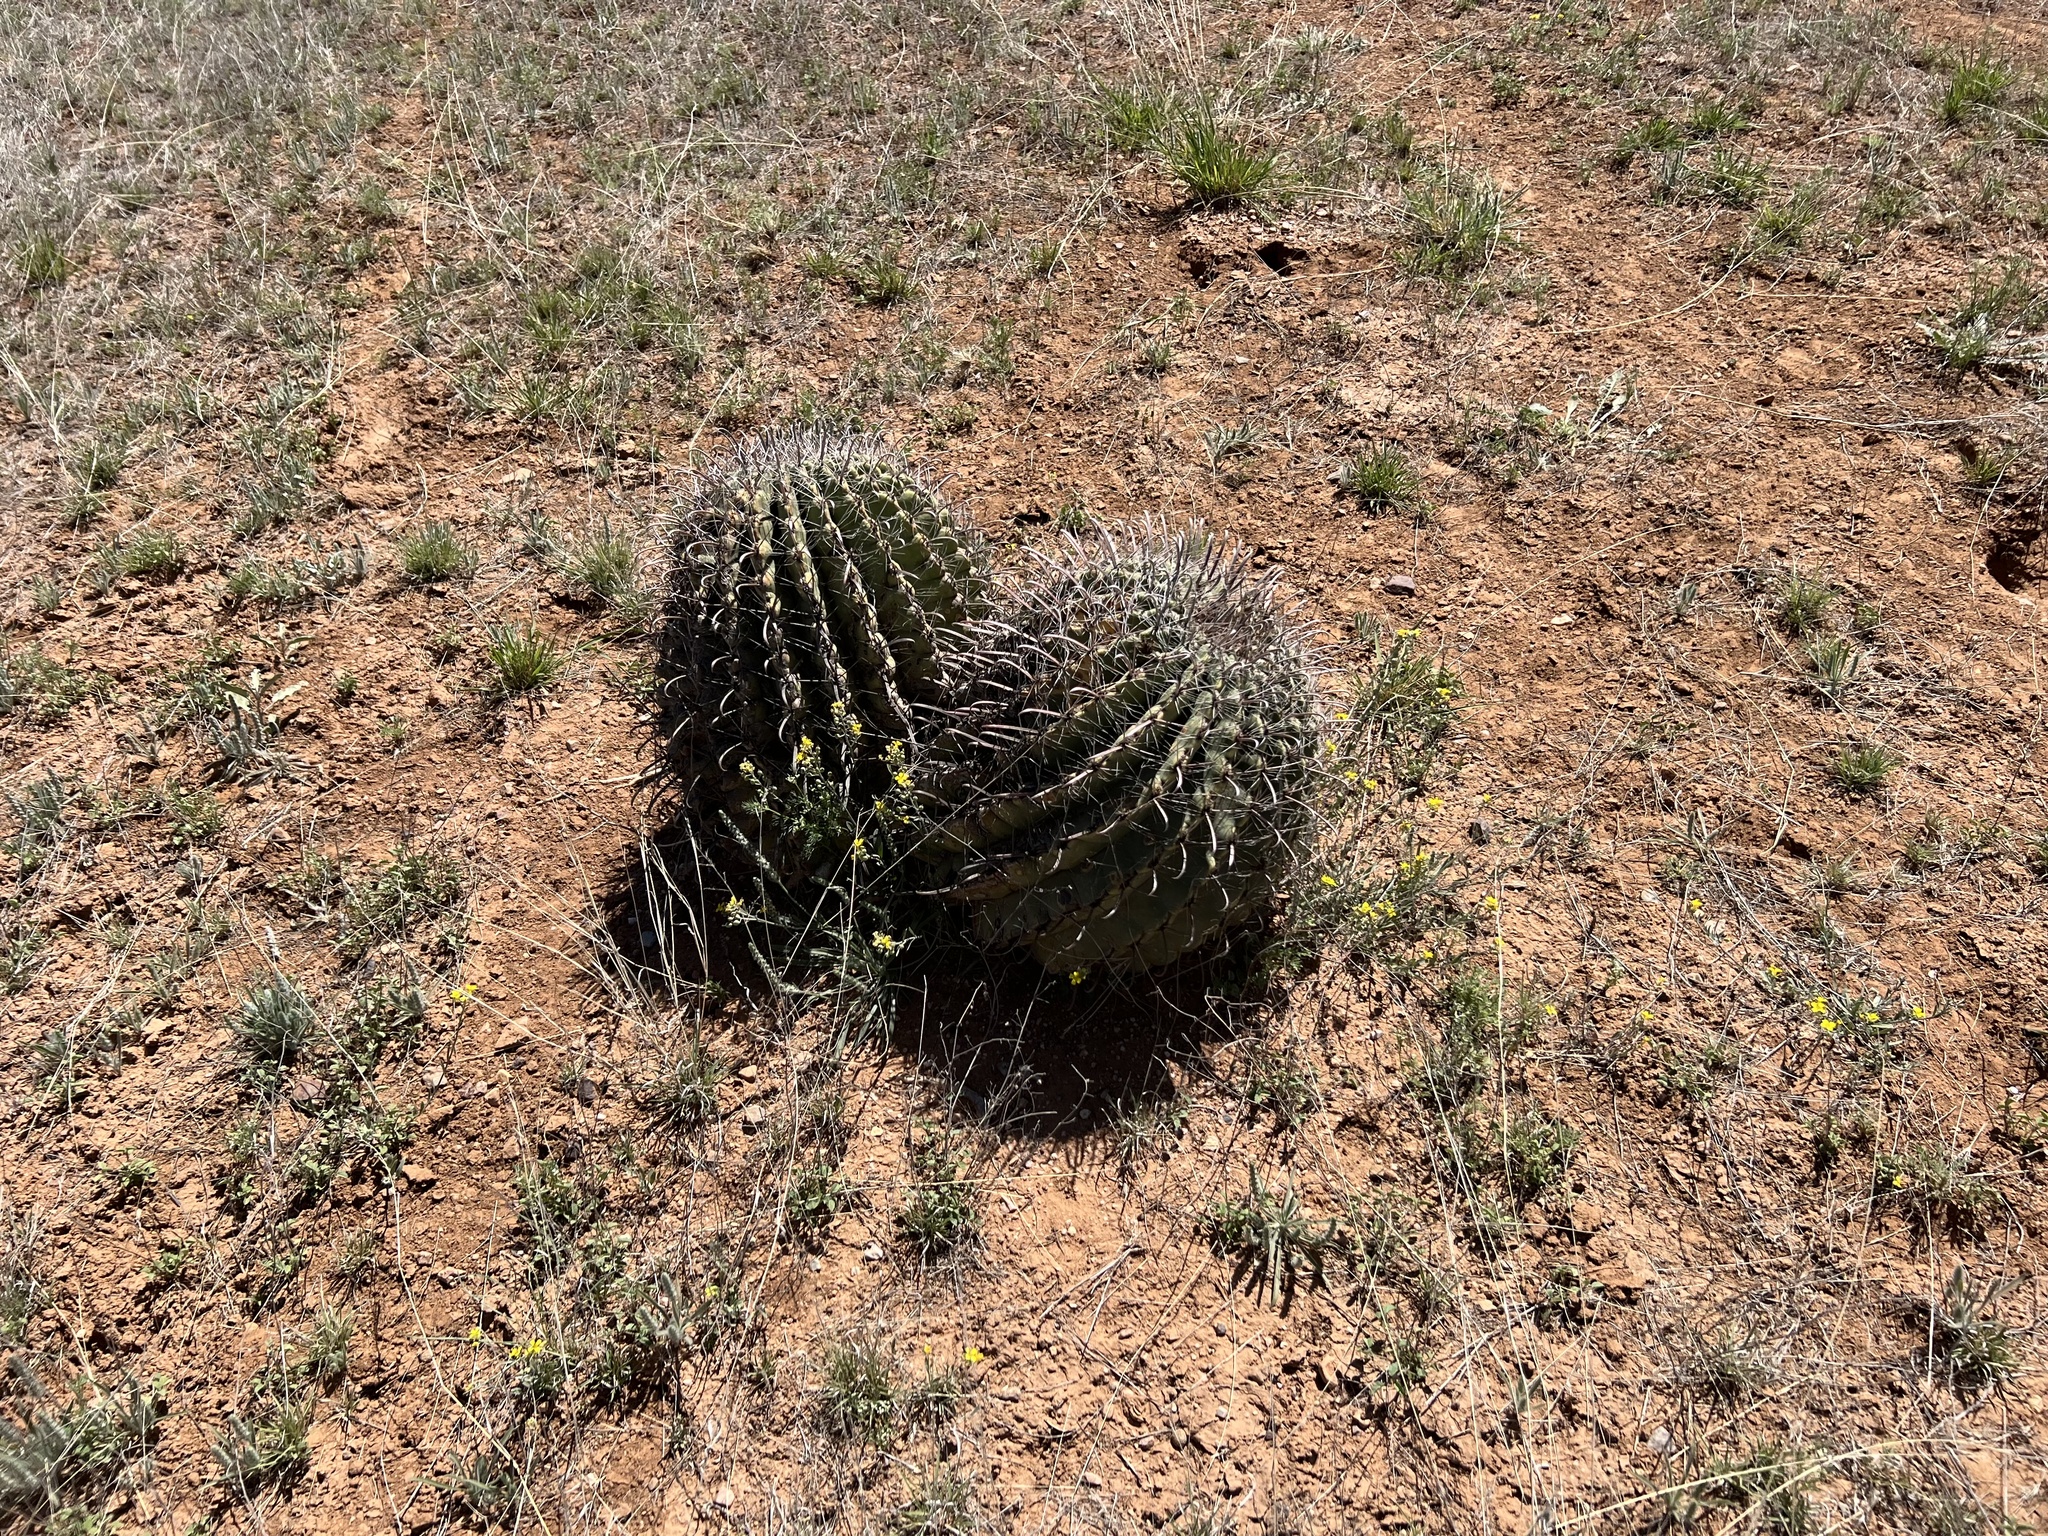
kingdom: Plantae
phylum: Tracheophyta
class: Magnoliopsida
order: Caryophyllales
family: Cactaceae
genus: Ferocactus
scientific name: Ferocactus wislizeni
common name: Candy barrel cactus
